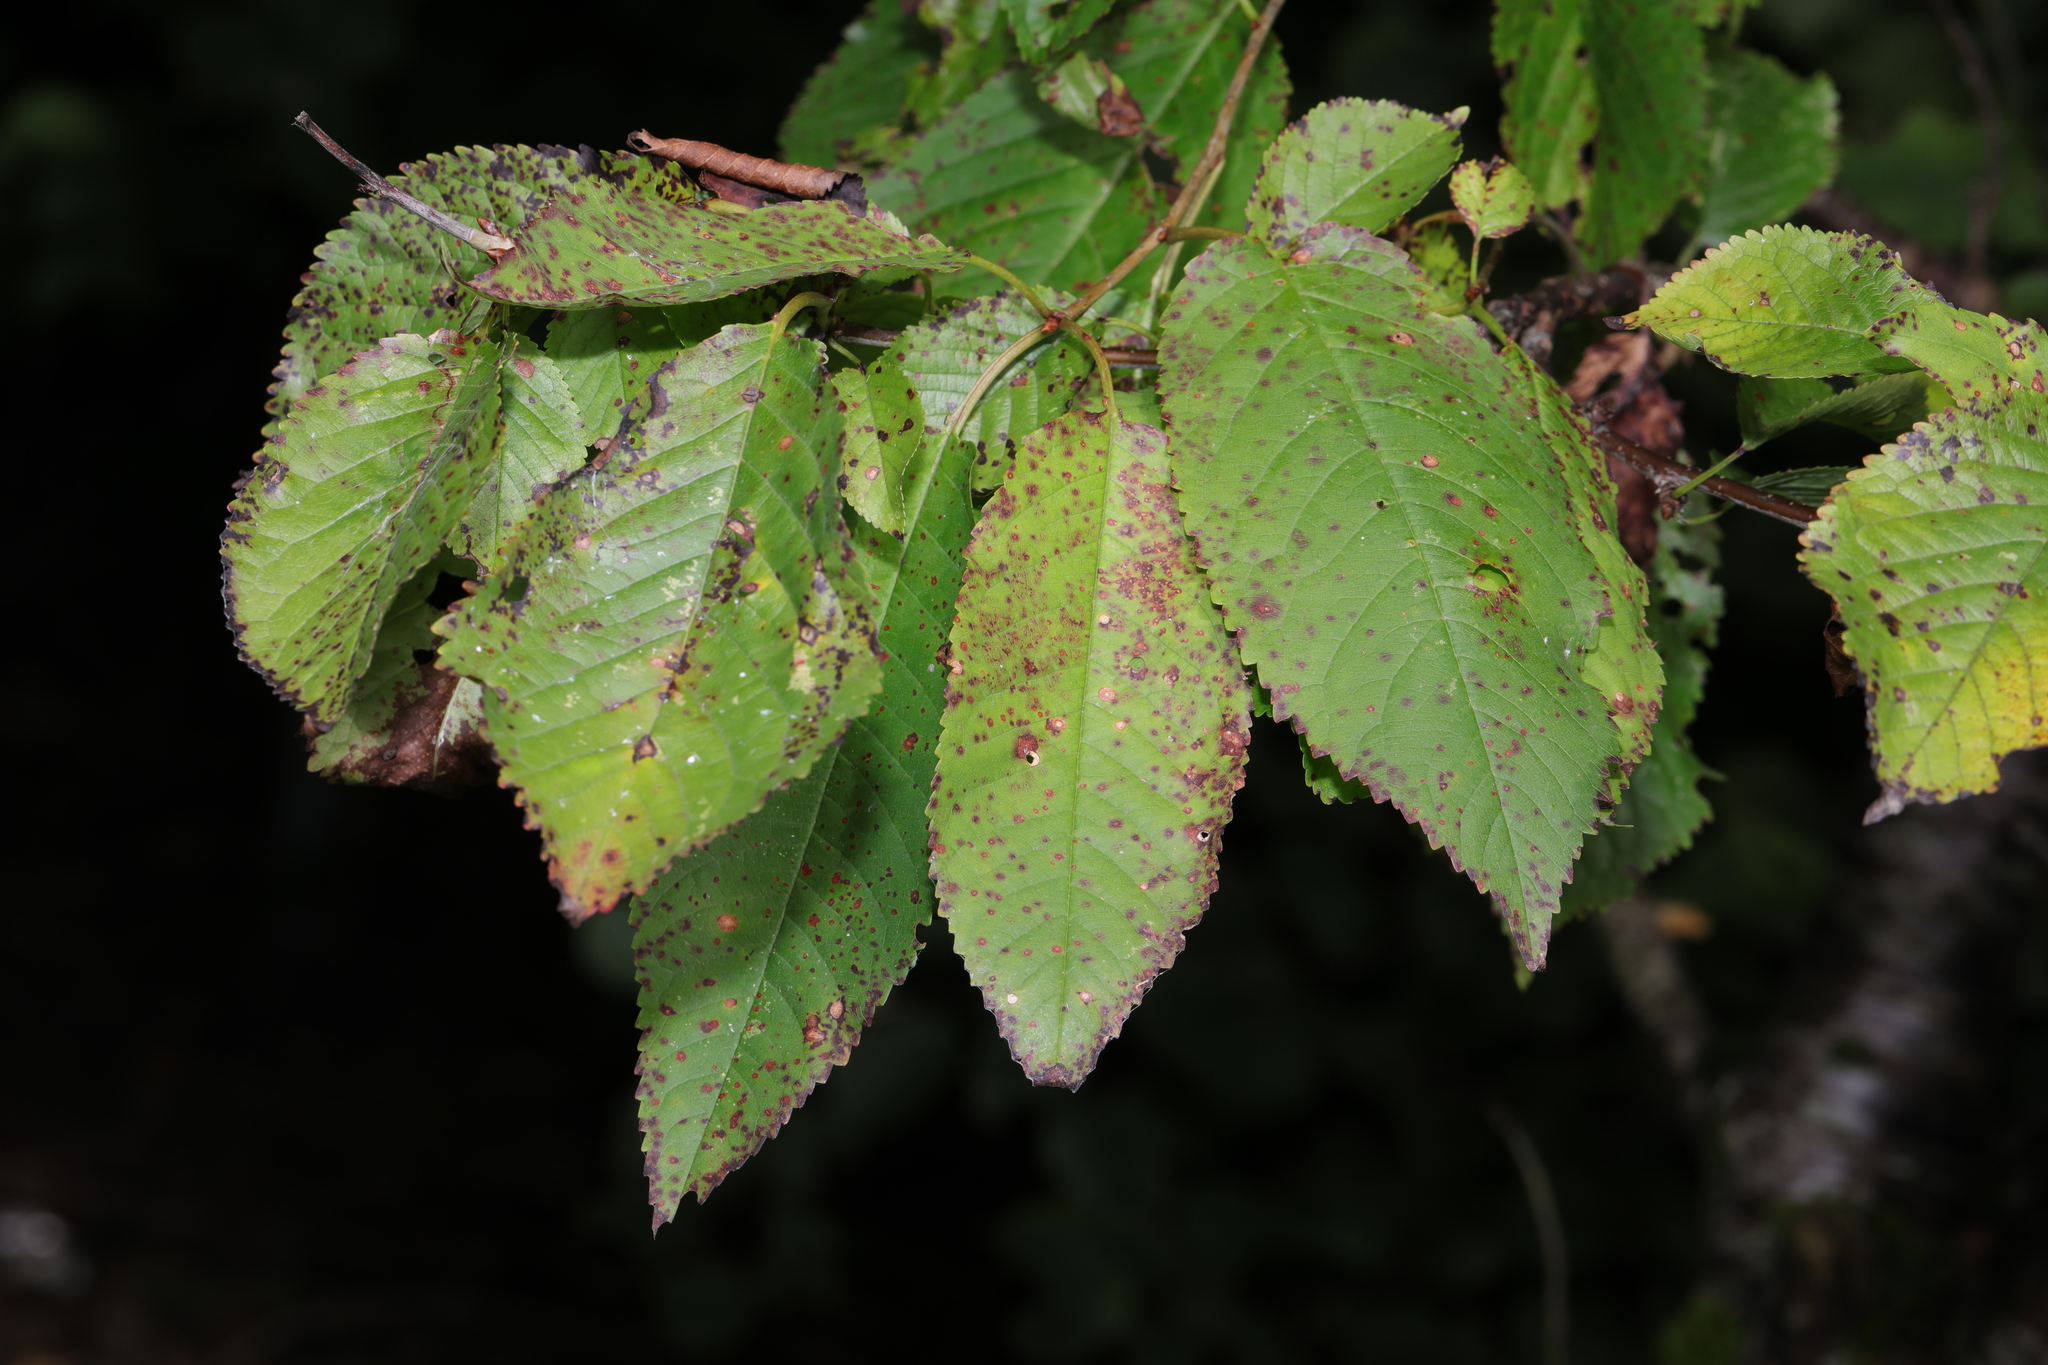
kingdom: Plantae
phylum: Tracheophyta
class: Magnoliopsida
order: Rosales
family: Rosaceae
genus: Prunus
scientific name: Prunus avium
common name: Sweet cherry
